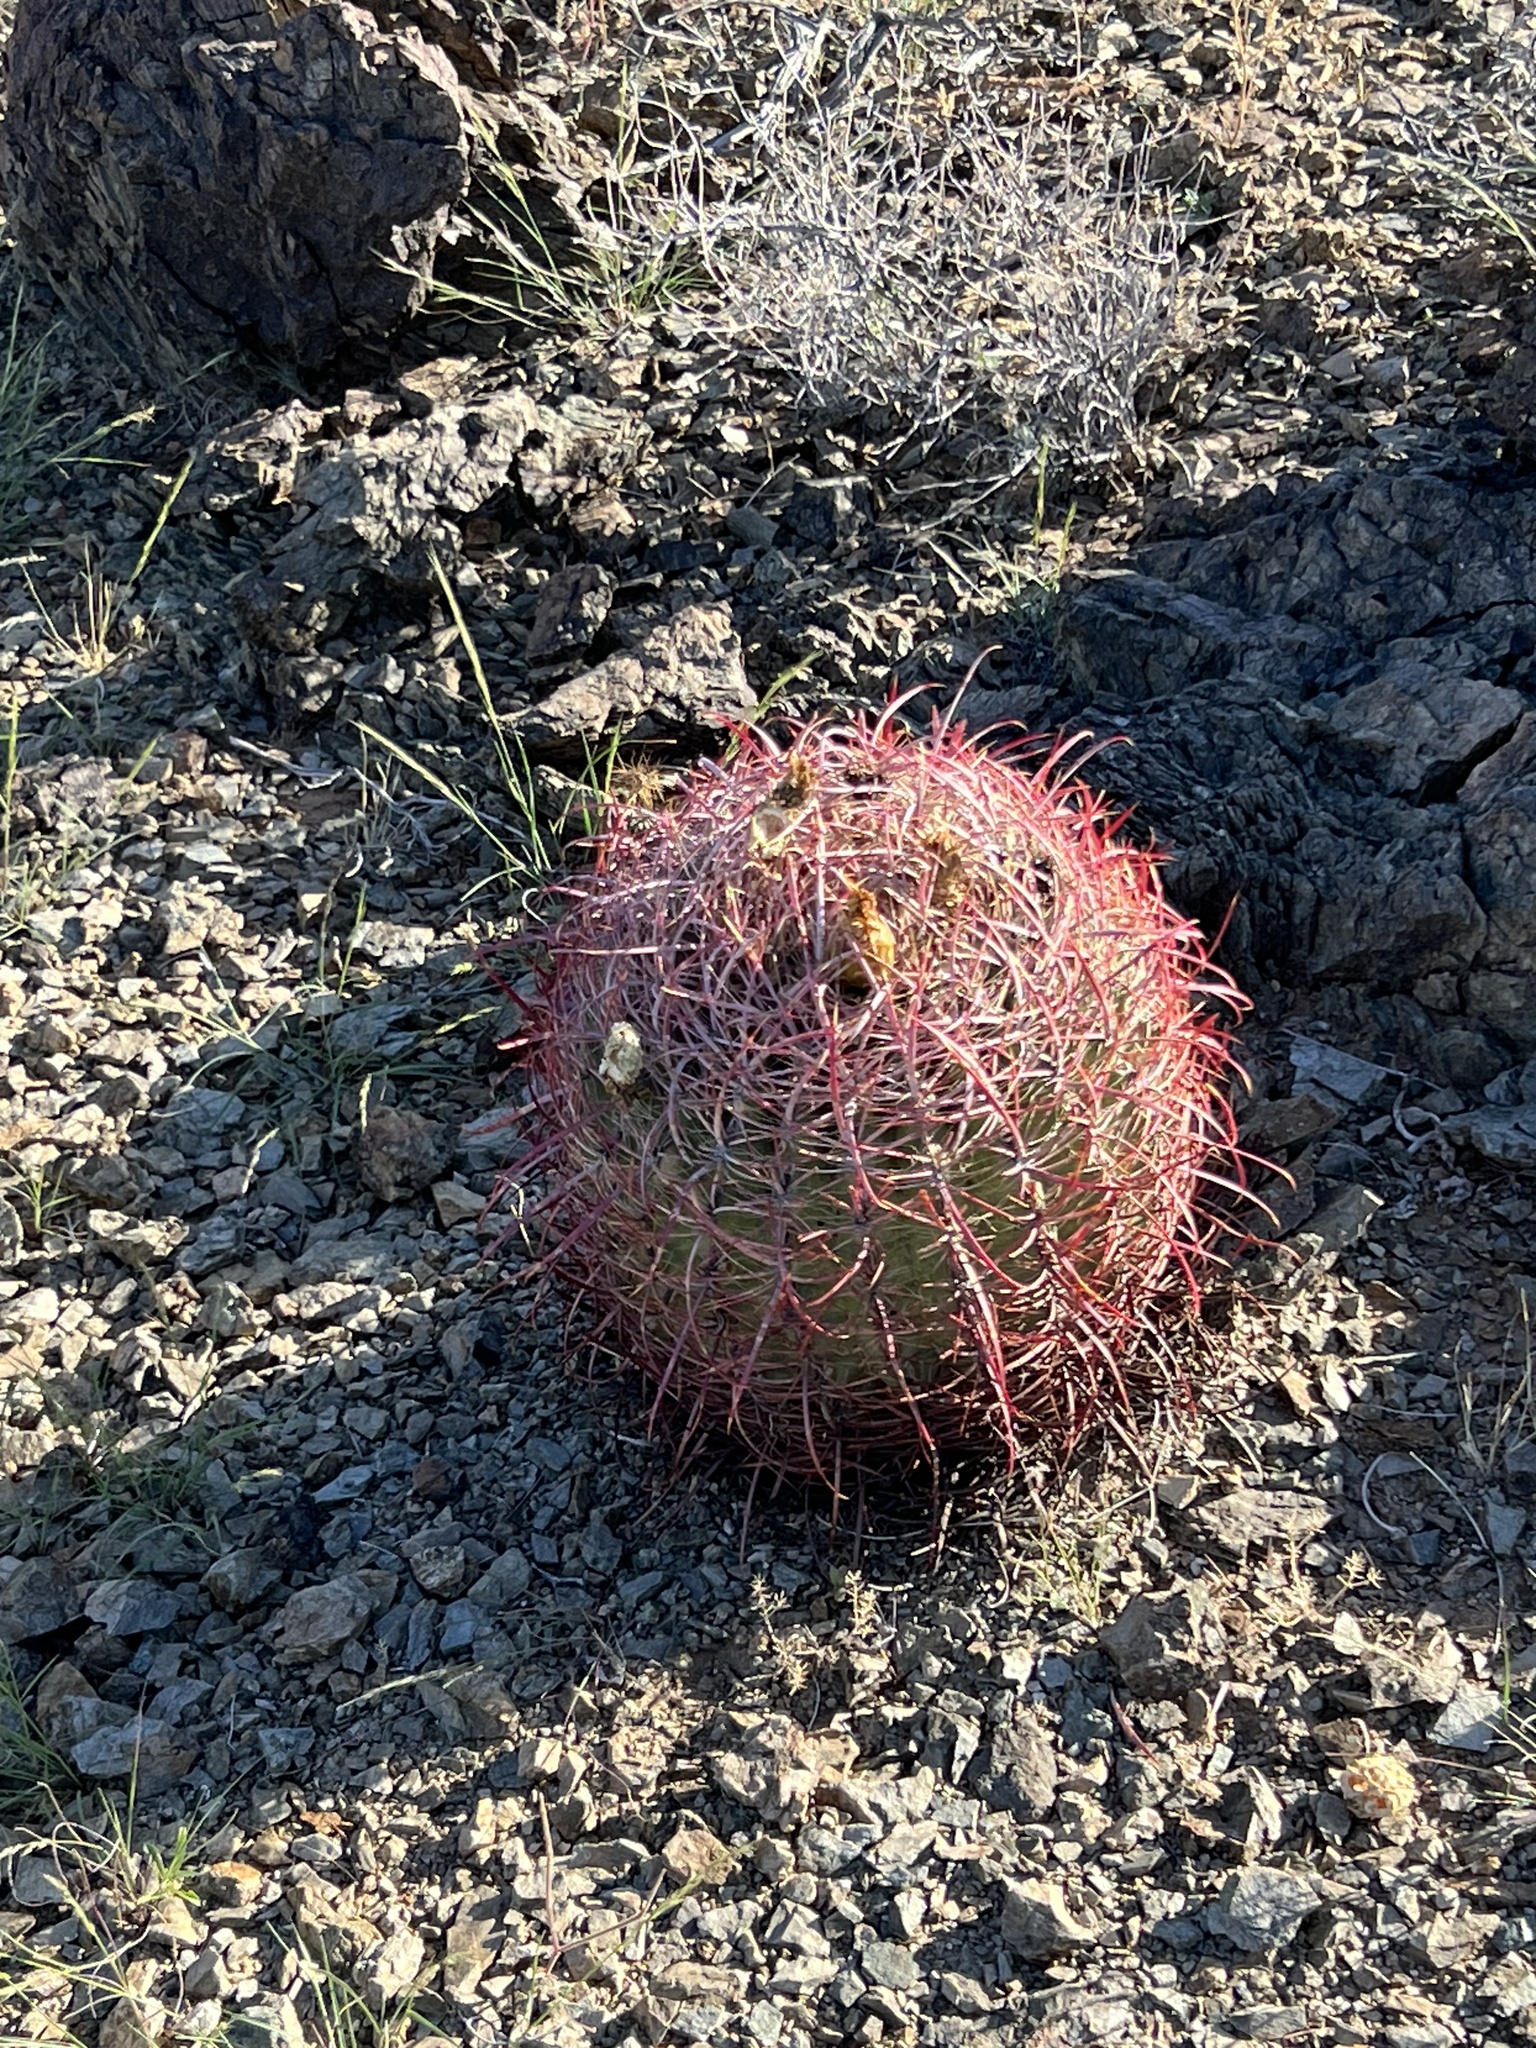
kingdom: Plantae
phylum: Tracheophyta
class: Magnoliopsida
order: Caryophyllales
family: Cactaceae
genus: Ferocactus
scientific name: Ferocactus cylindraceus
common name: California barrel cactus
